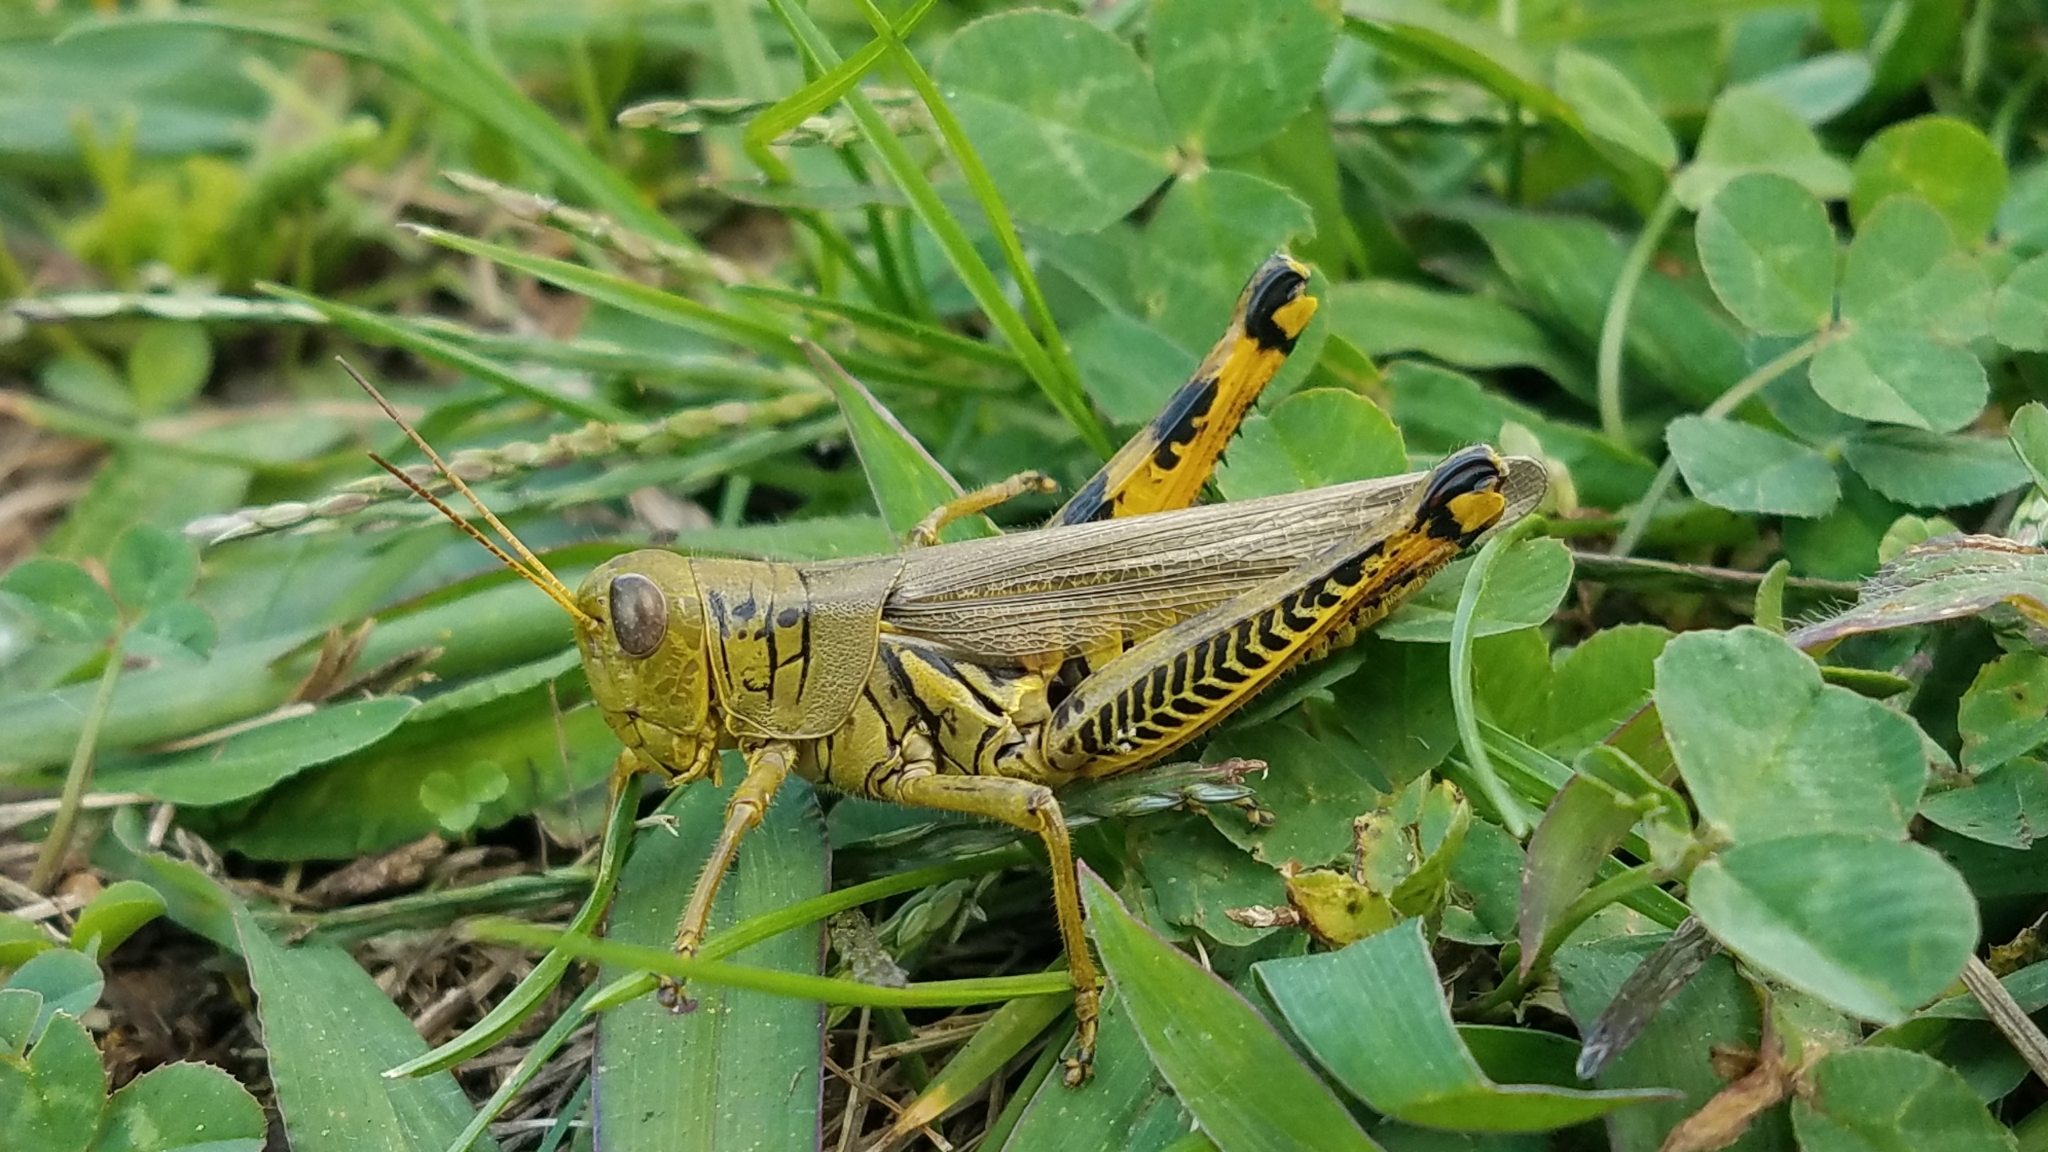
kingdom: Animalia
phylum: Arthropoda
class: Insecta
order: Orthoptera
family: Acrididae
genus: Melanoplus
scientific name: Melanoplus differentialis
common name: Differential grasshopper
